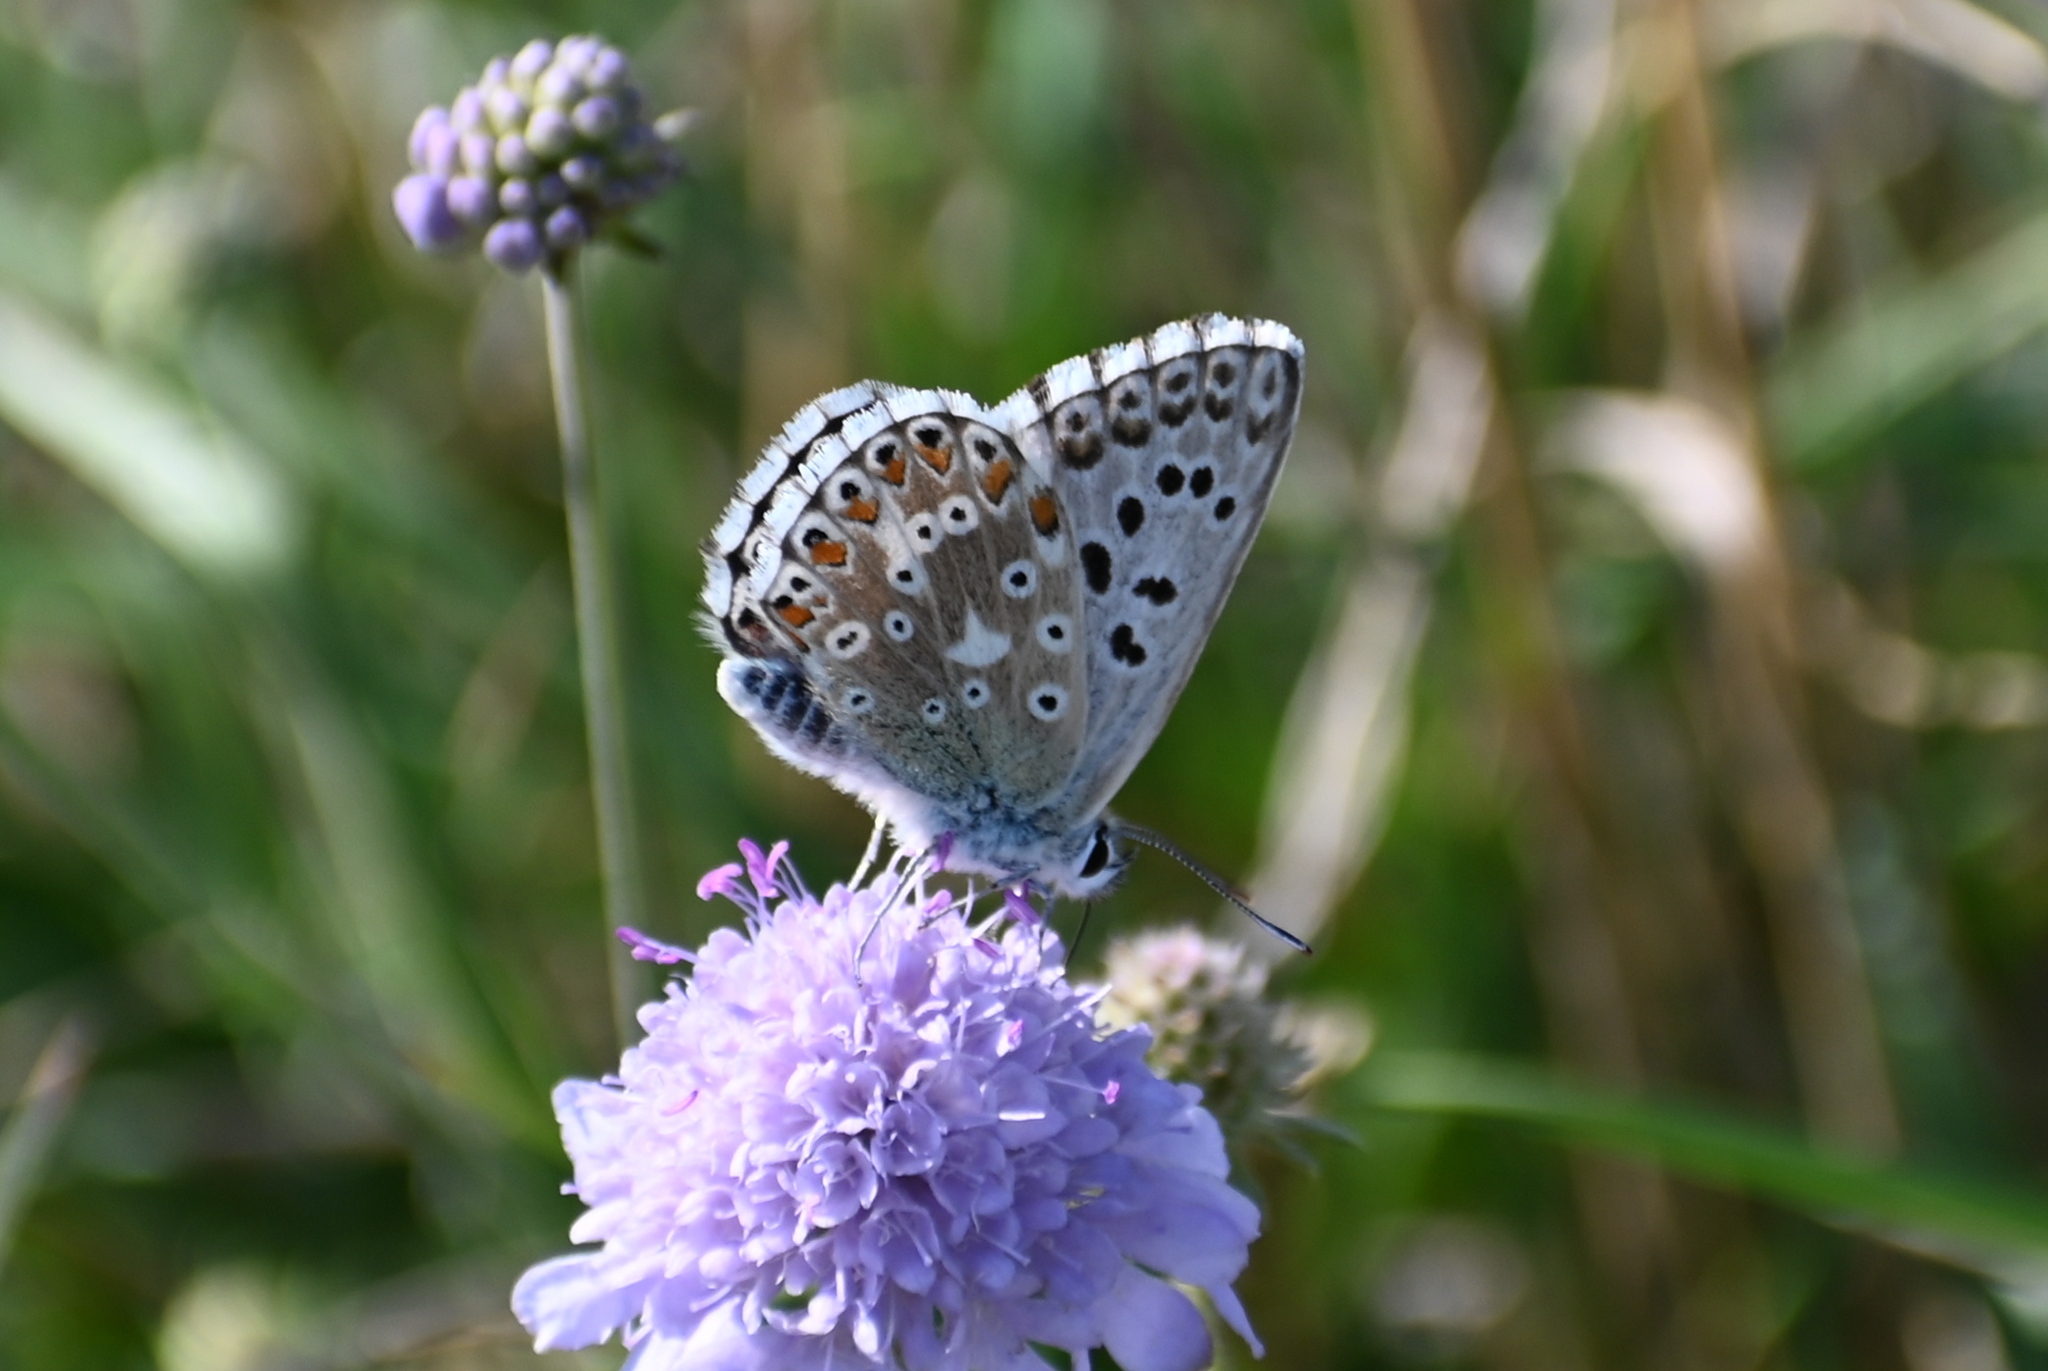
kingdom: Animalia
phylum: Arthropoda
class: Insecta
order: Lepidoptera
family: Lycaenidae
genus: Lysandra
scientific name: Lysandra bellargus
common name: Adonis blue
